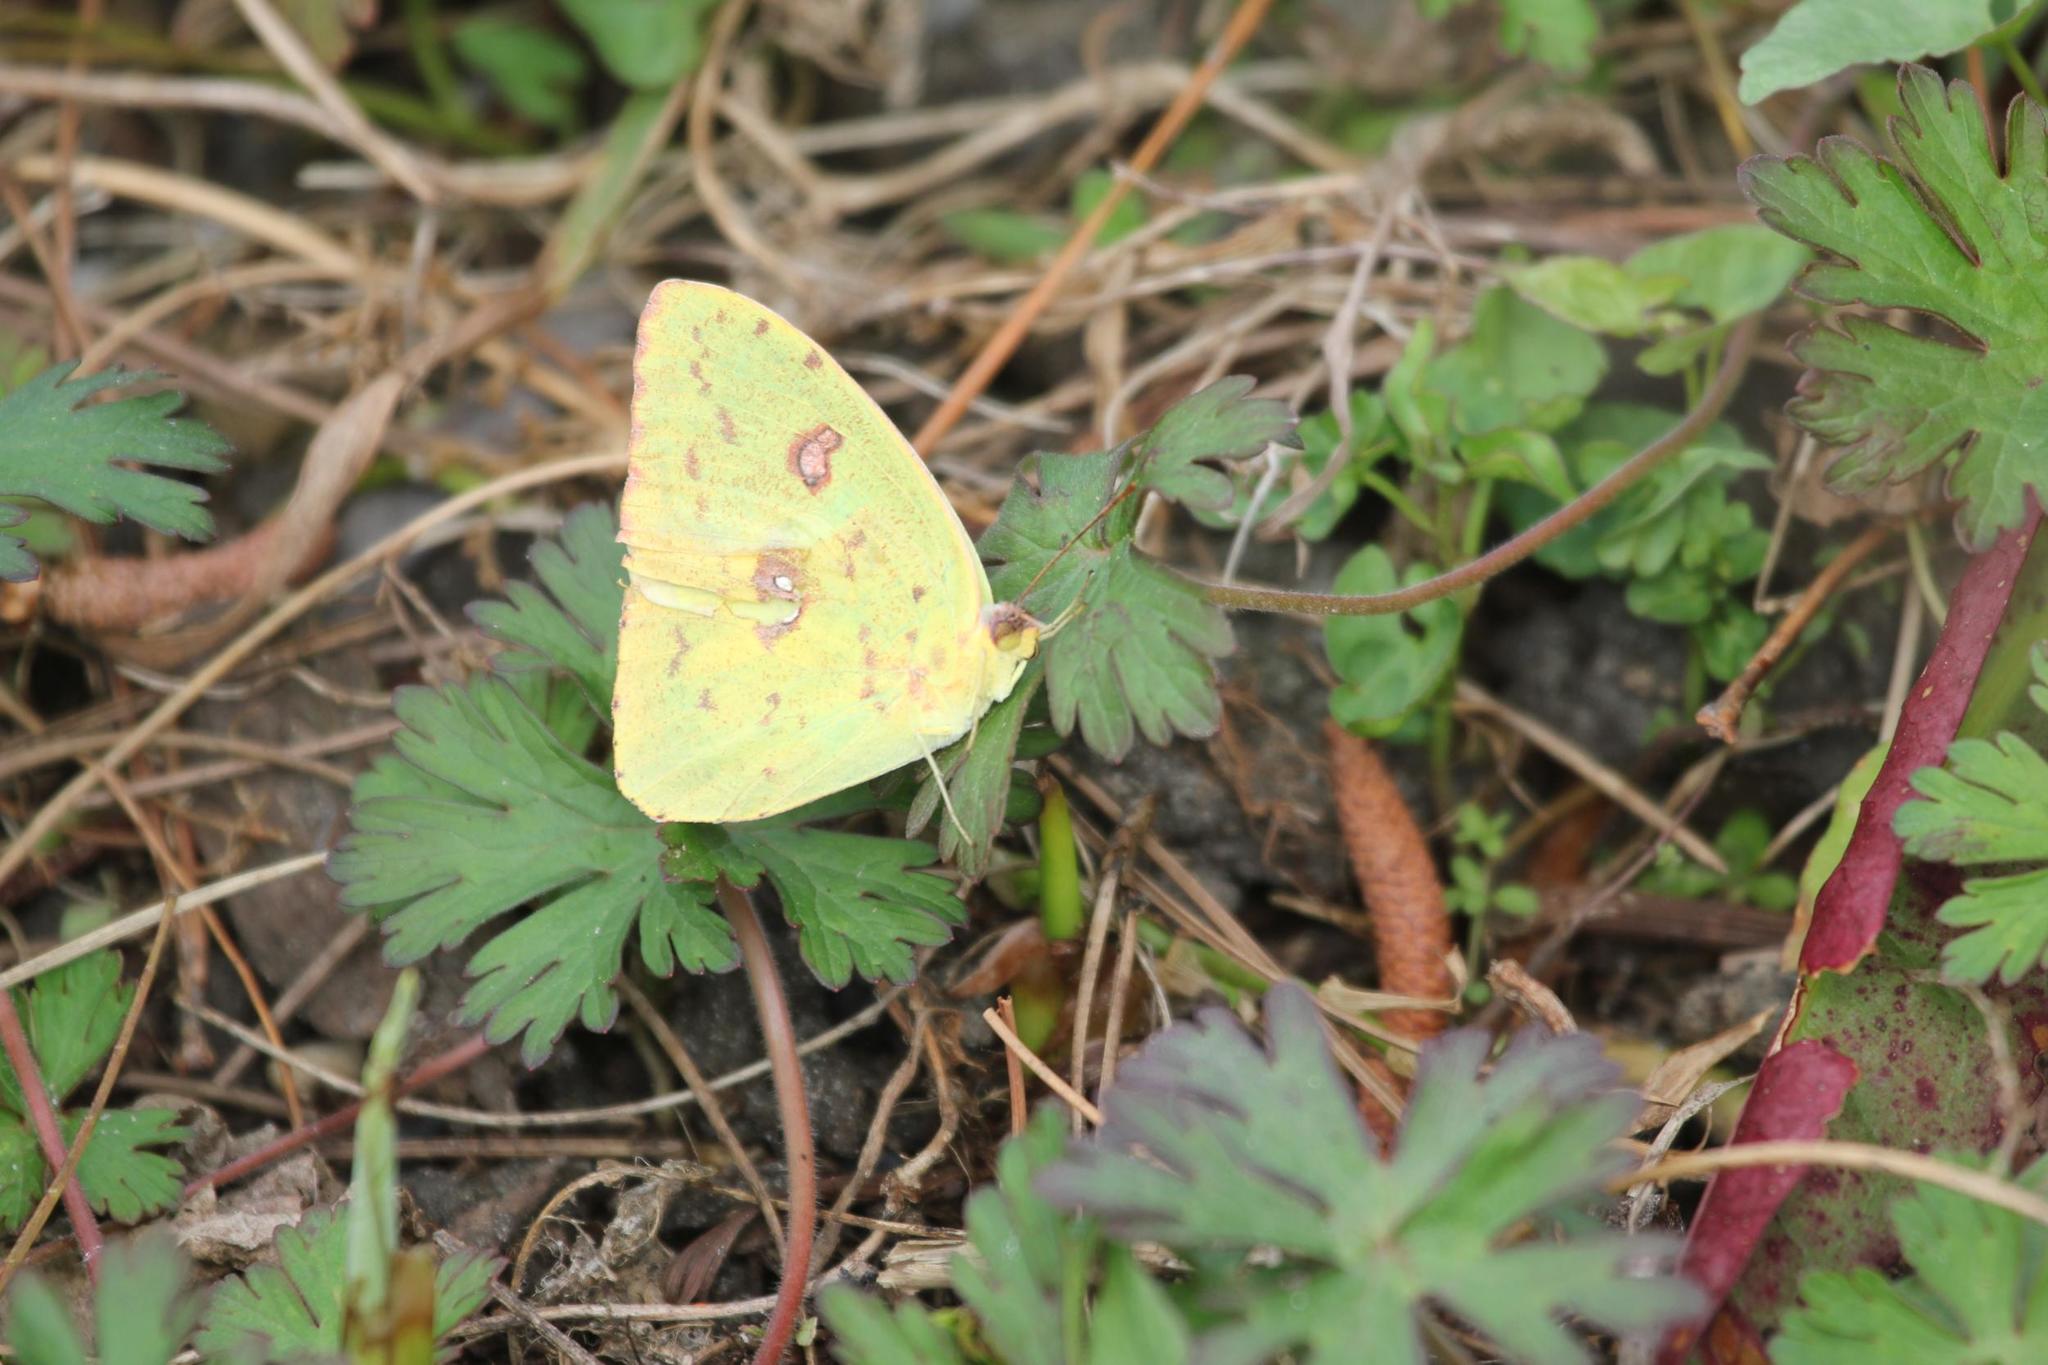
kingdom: Animalia
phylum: Arthropoda
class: Insecta
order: Lepidoptera
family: Pieridae
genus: Phoebis
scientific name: Phoebis sennae
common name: Cloudless sulphur
